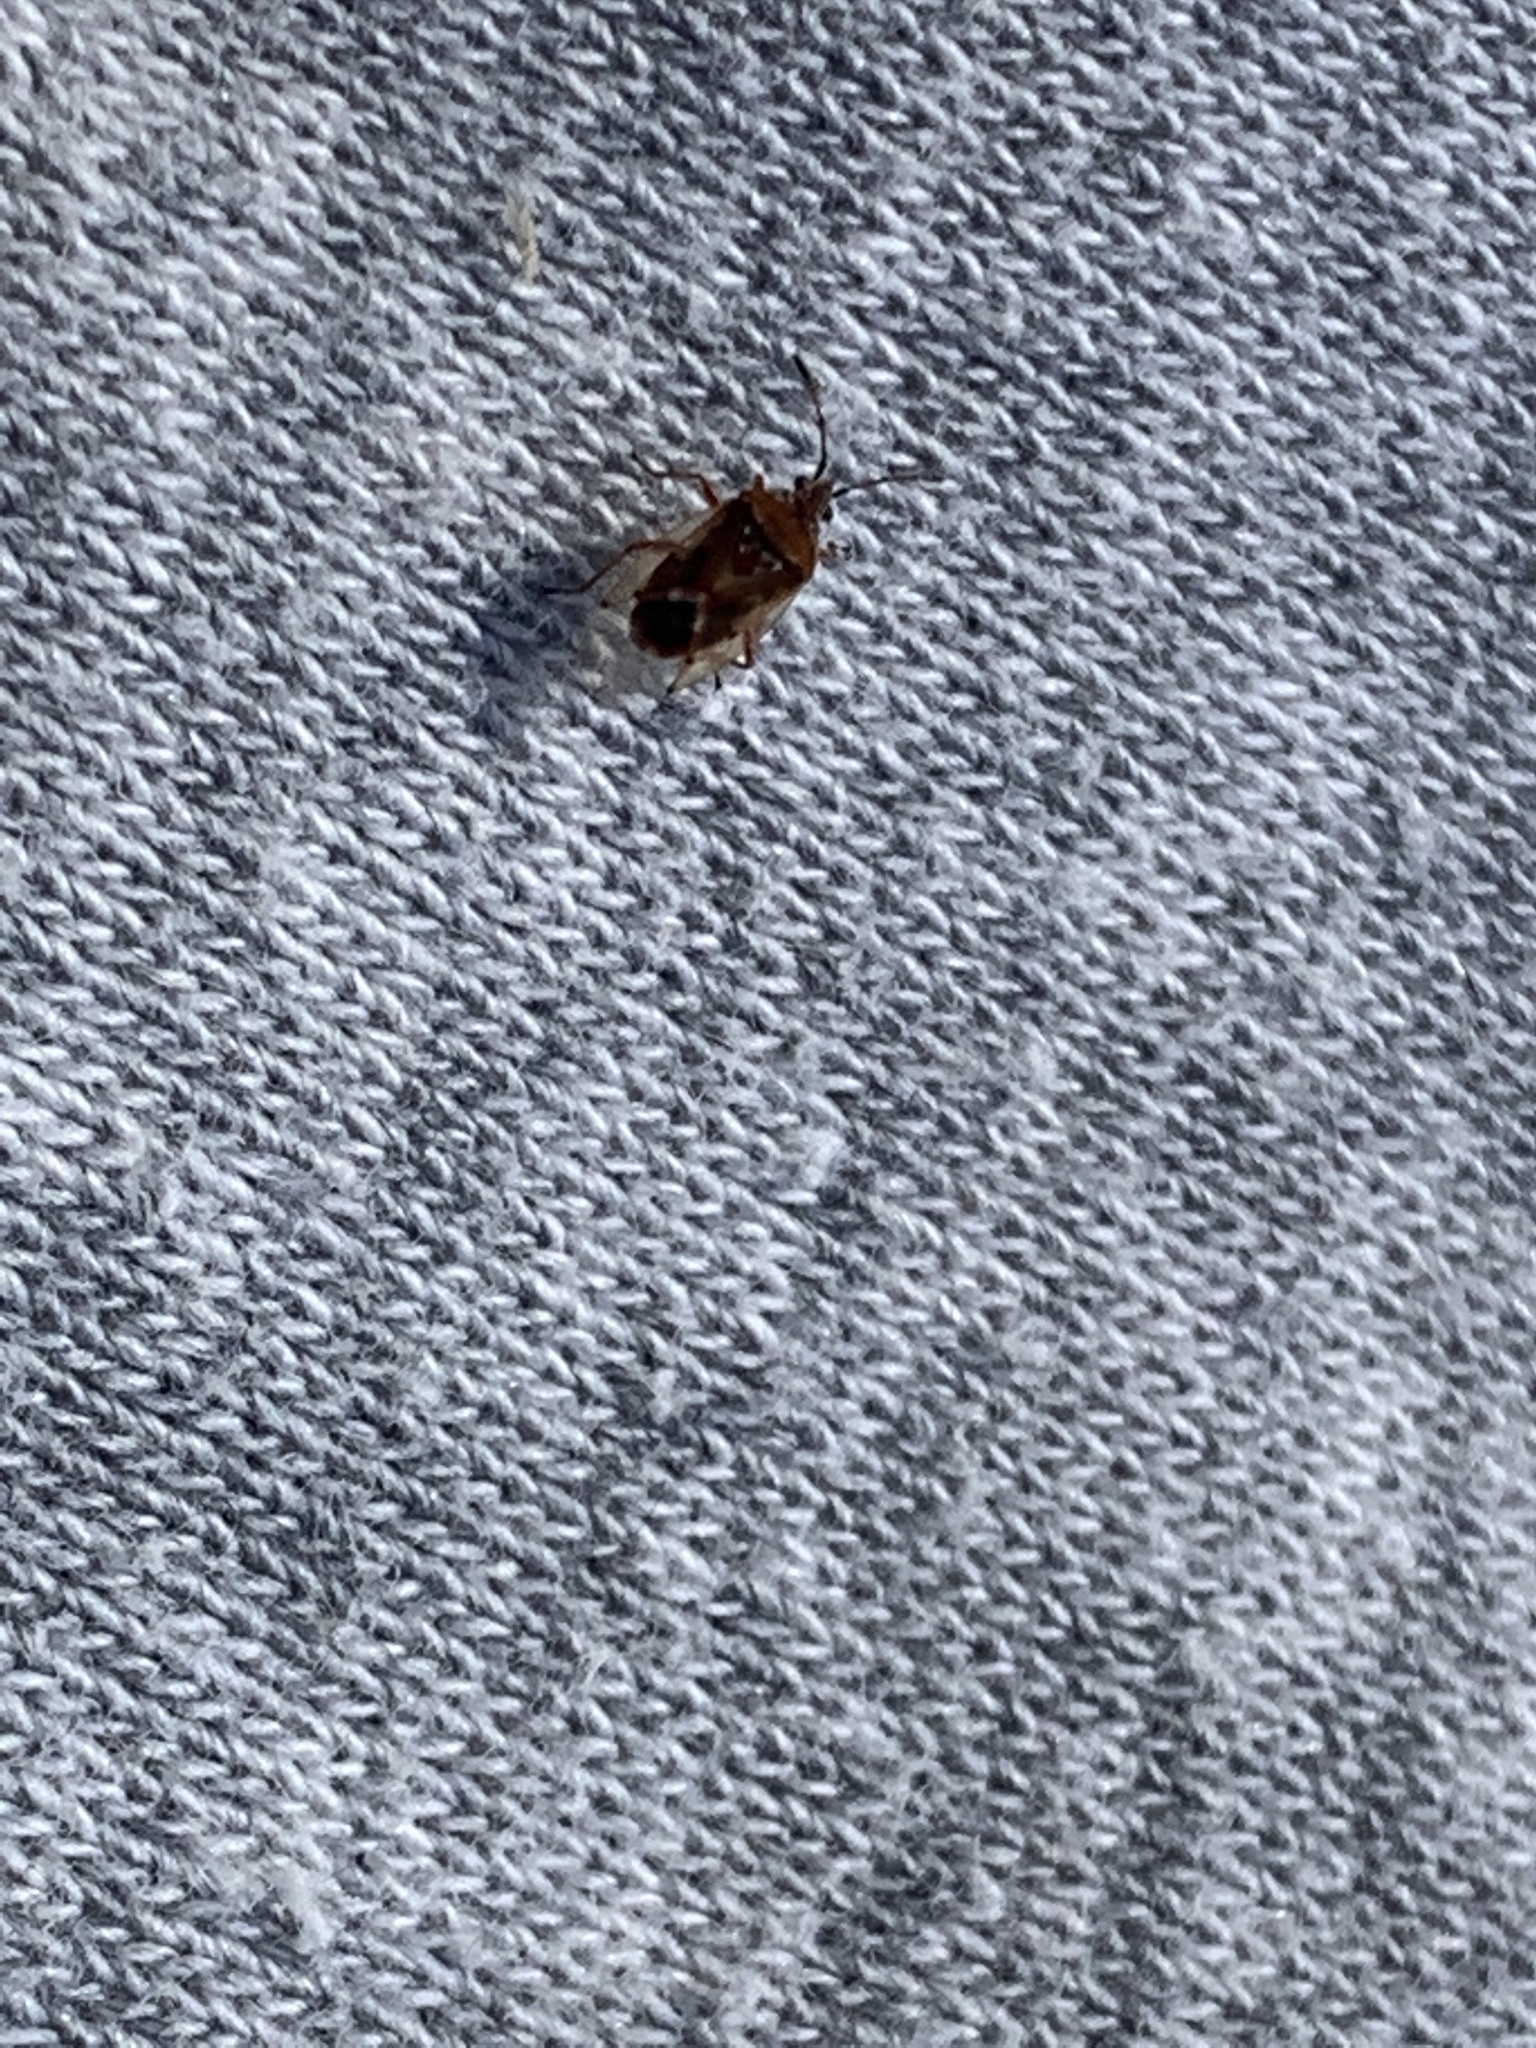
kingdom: Animalia
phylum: Arthropoda
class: Insecta
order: Hemiptera
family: Lygaeidae
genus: Kleidocerys
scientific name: Kleidocerys resedae
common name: Birch catkin bug
